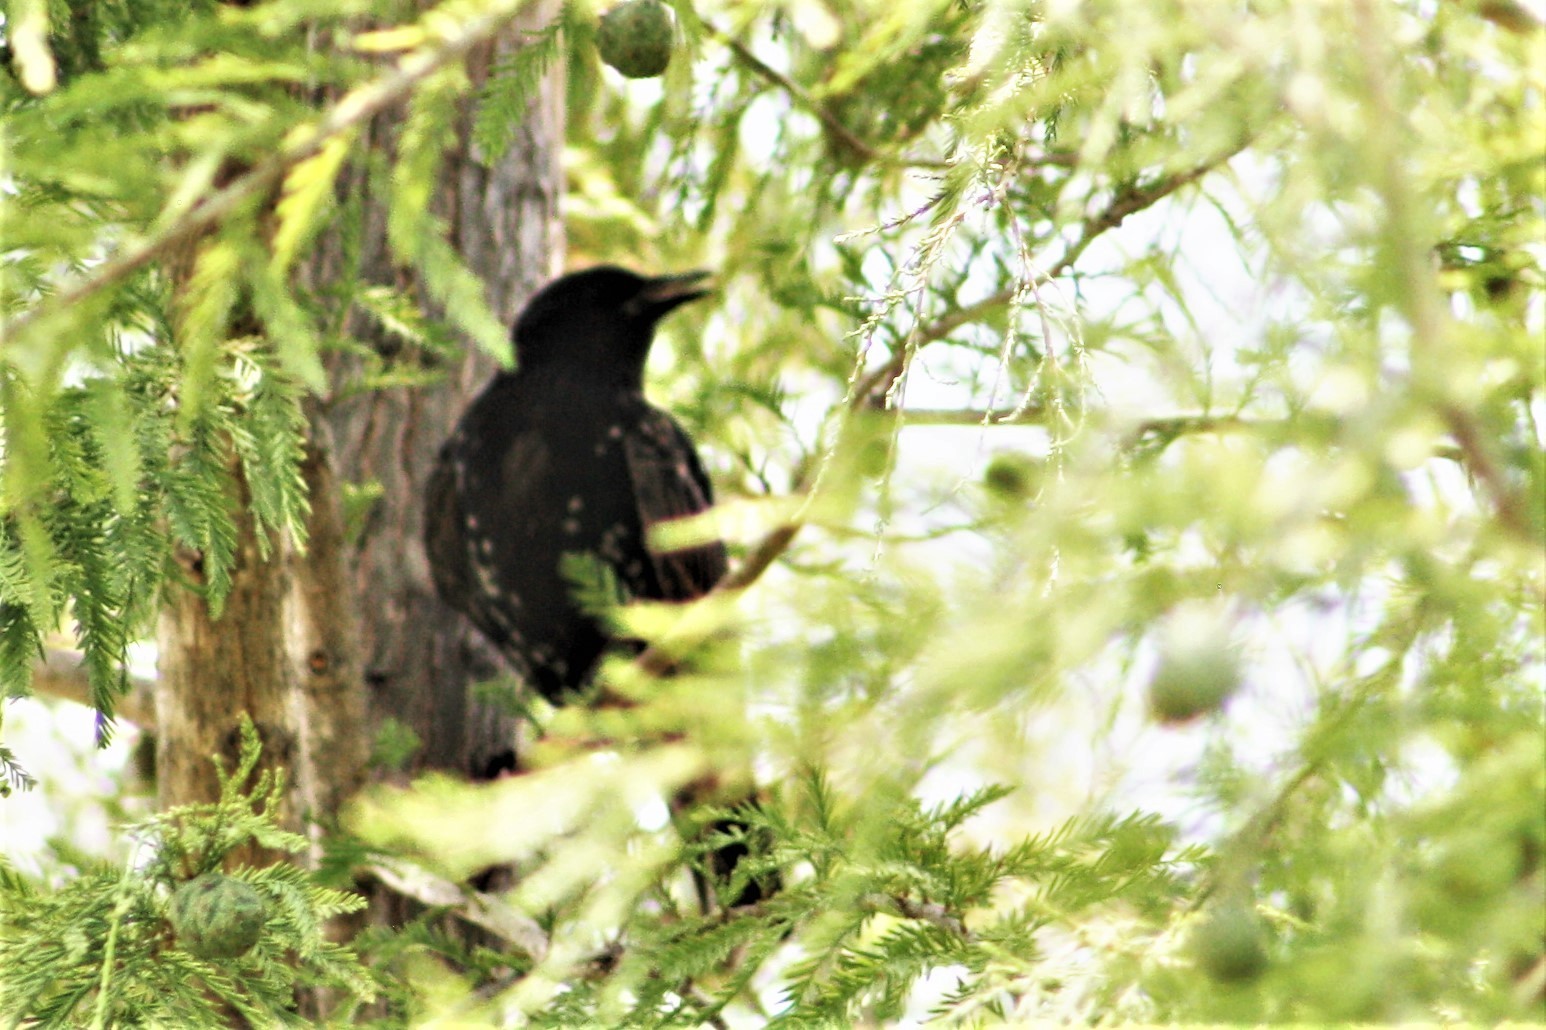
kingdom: Animalia
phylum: Chordata
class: Aves
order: Passeriformes
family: Sturnidae
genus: Sturnus
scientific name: Sturnus vulgaris
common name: Common starling
